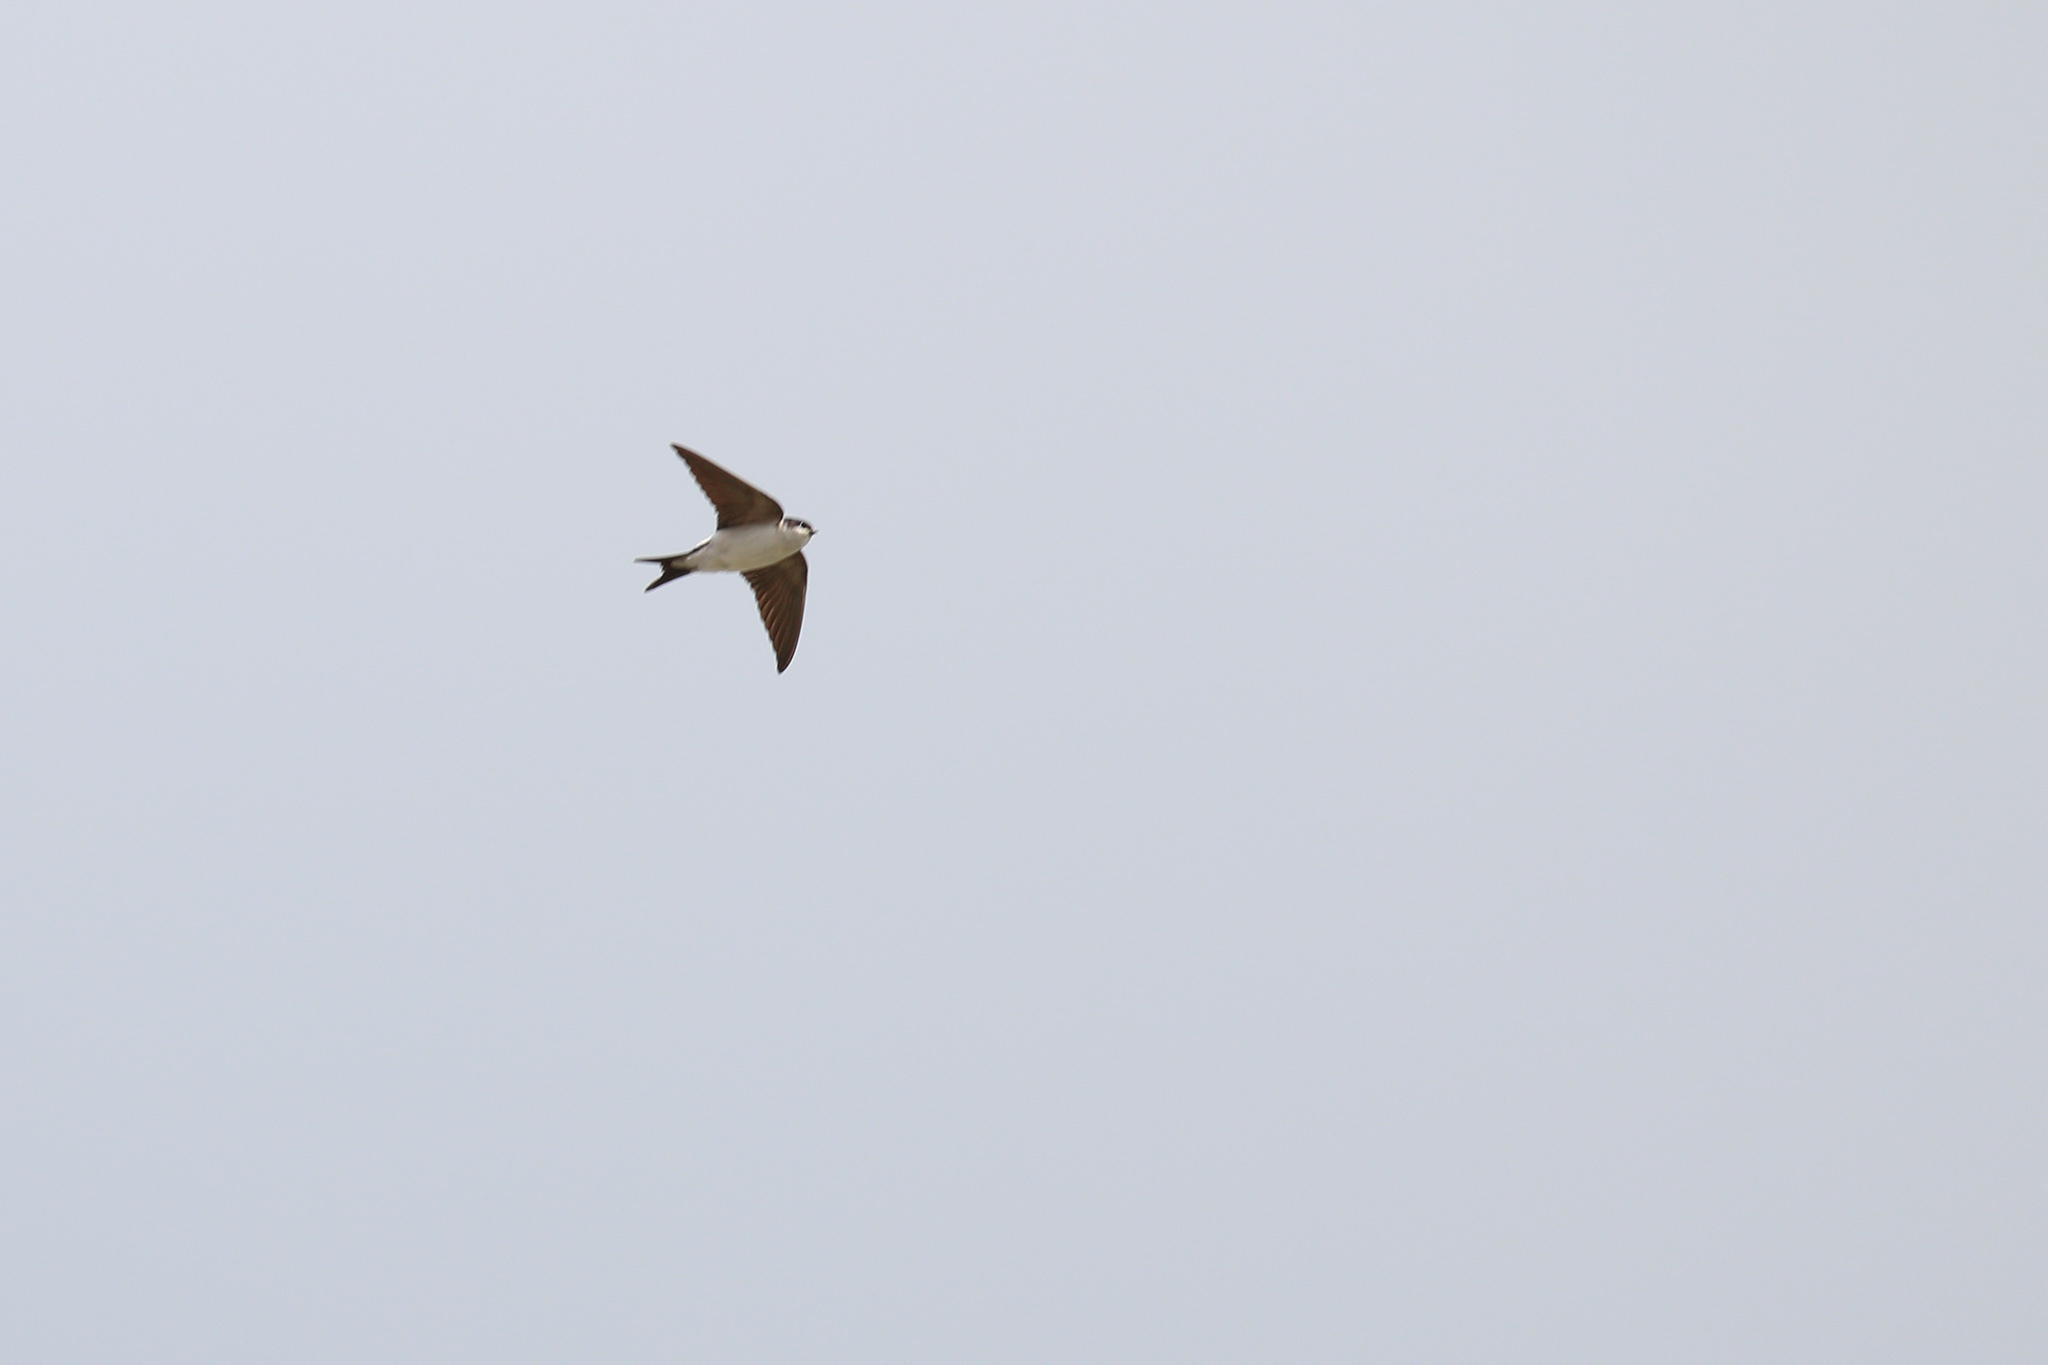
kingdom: Animalia
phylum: Chordata
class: Aves
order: Passeriformes
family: Hirundinidae
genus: Delichon
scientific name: Delichon urbicum
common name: Common house martin
